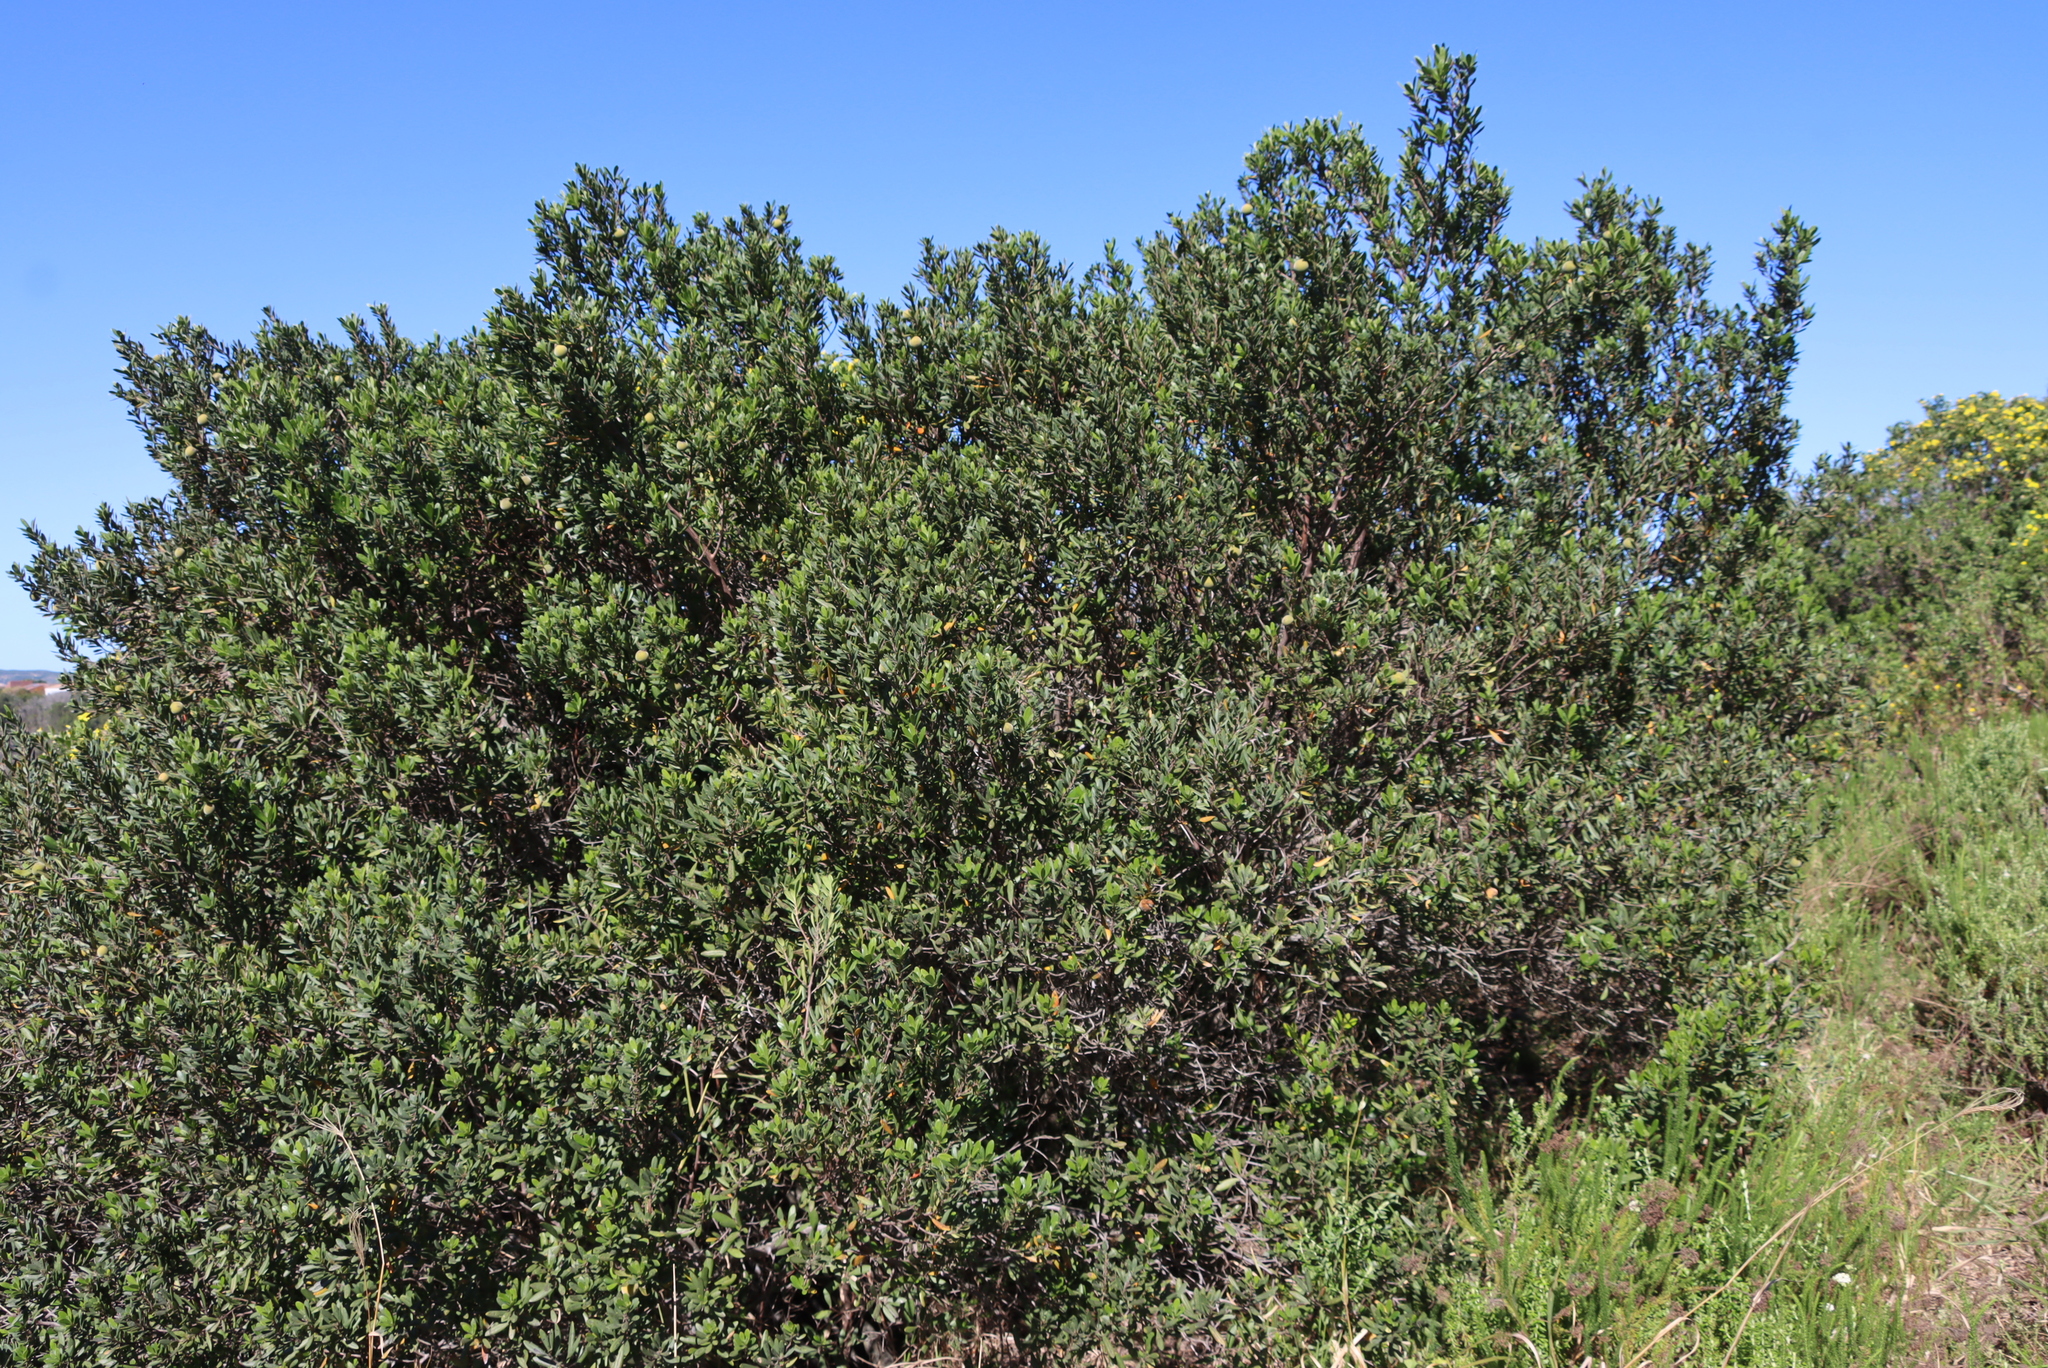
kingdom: Plantae
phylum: Tracheophyta
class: Magnoliopsida
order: Ericales
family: Ebenaceae
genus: Diospyros
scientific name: Diospyros dichrophylla
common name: Common star-apple
